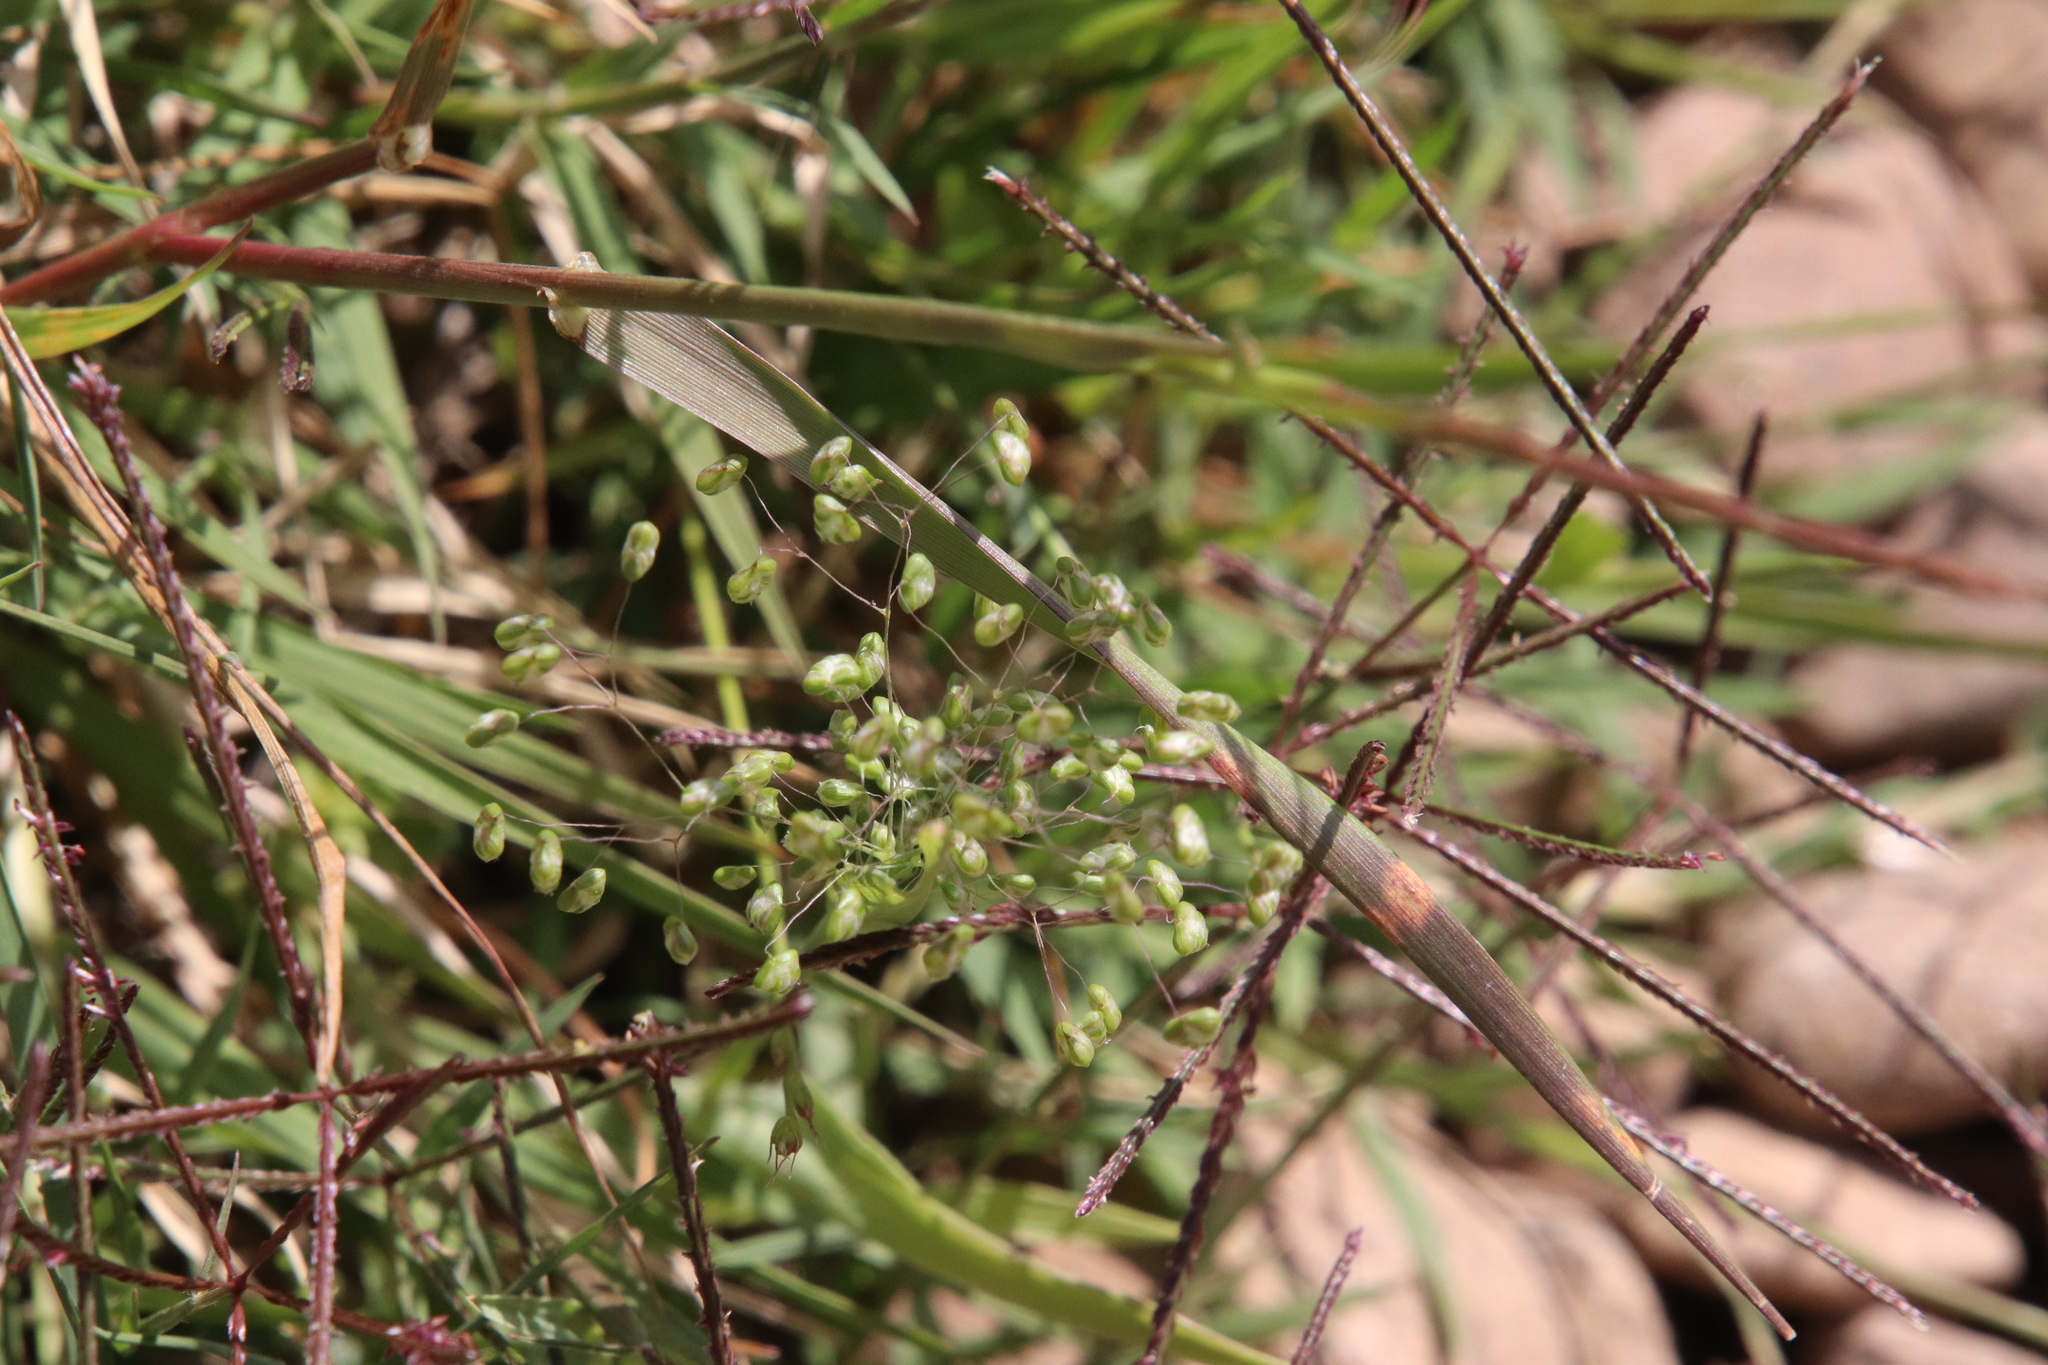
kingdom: Plantae
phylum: Tracheophyta
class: Liliopsida
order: Poales
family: Poaceae
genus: Briza
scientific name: Briza minor
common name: Lesser quaking-grass
